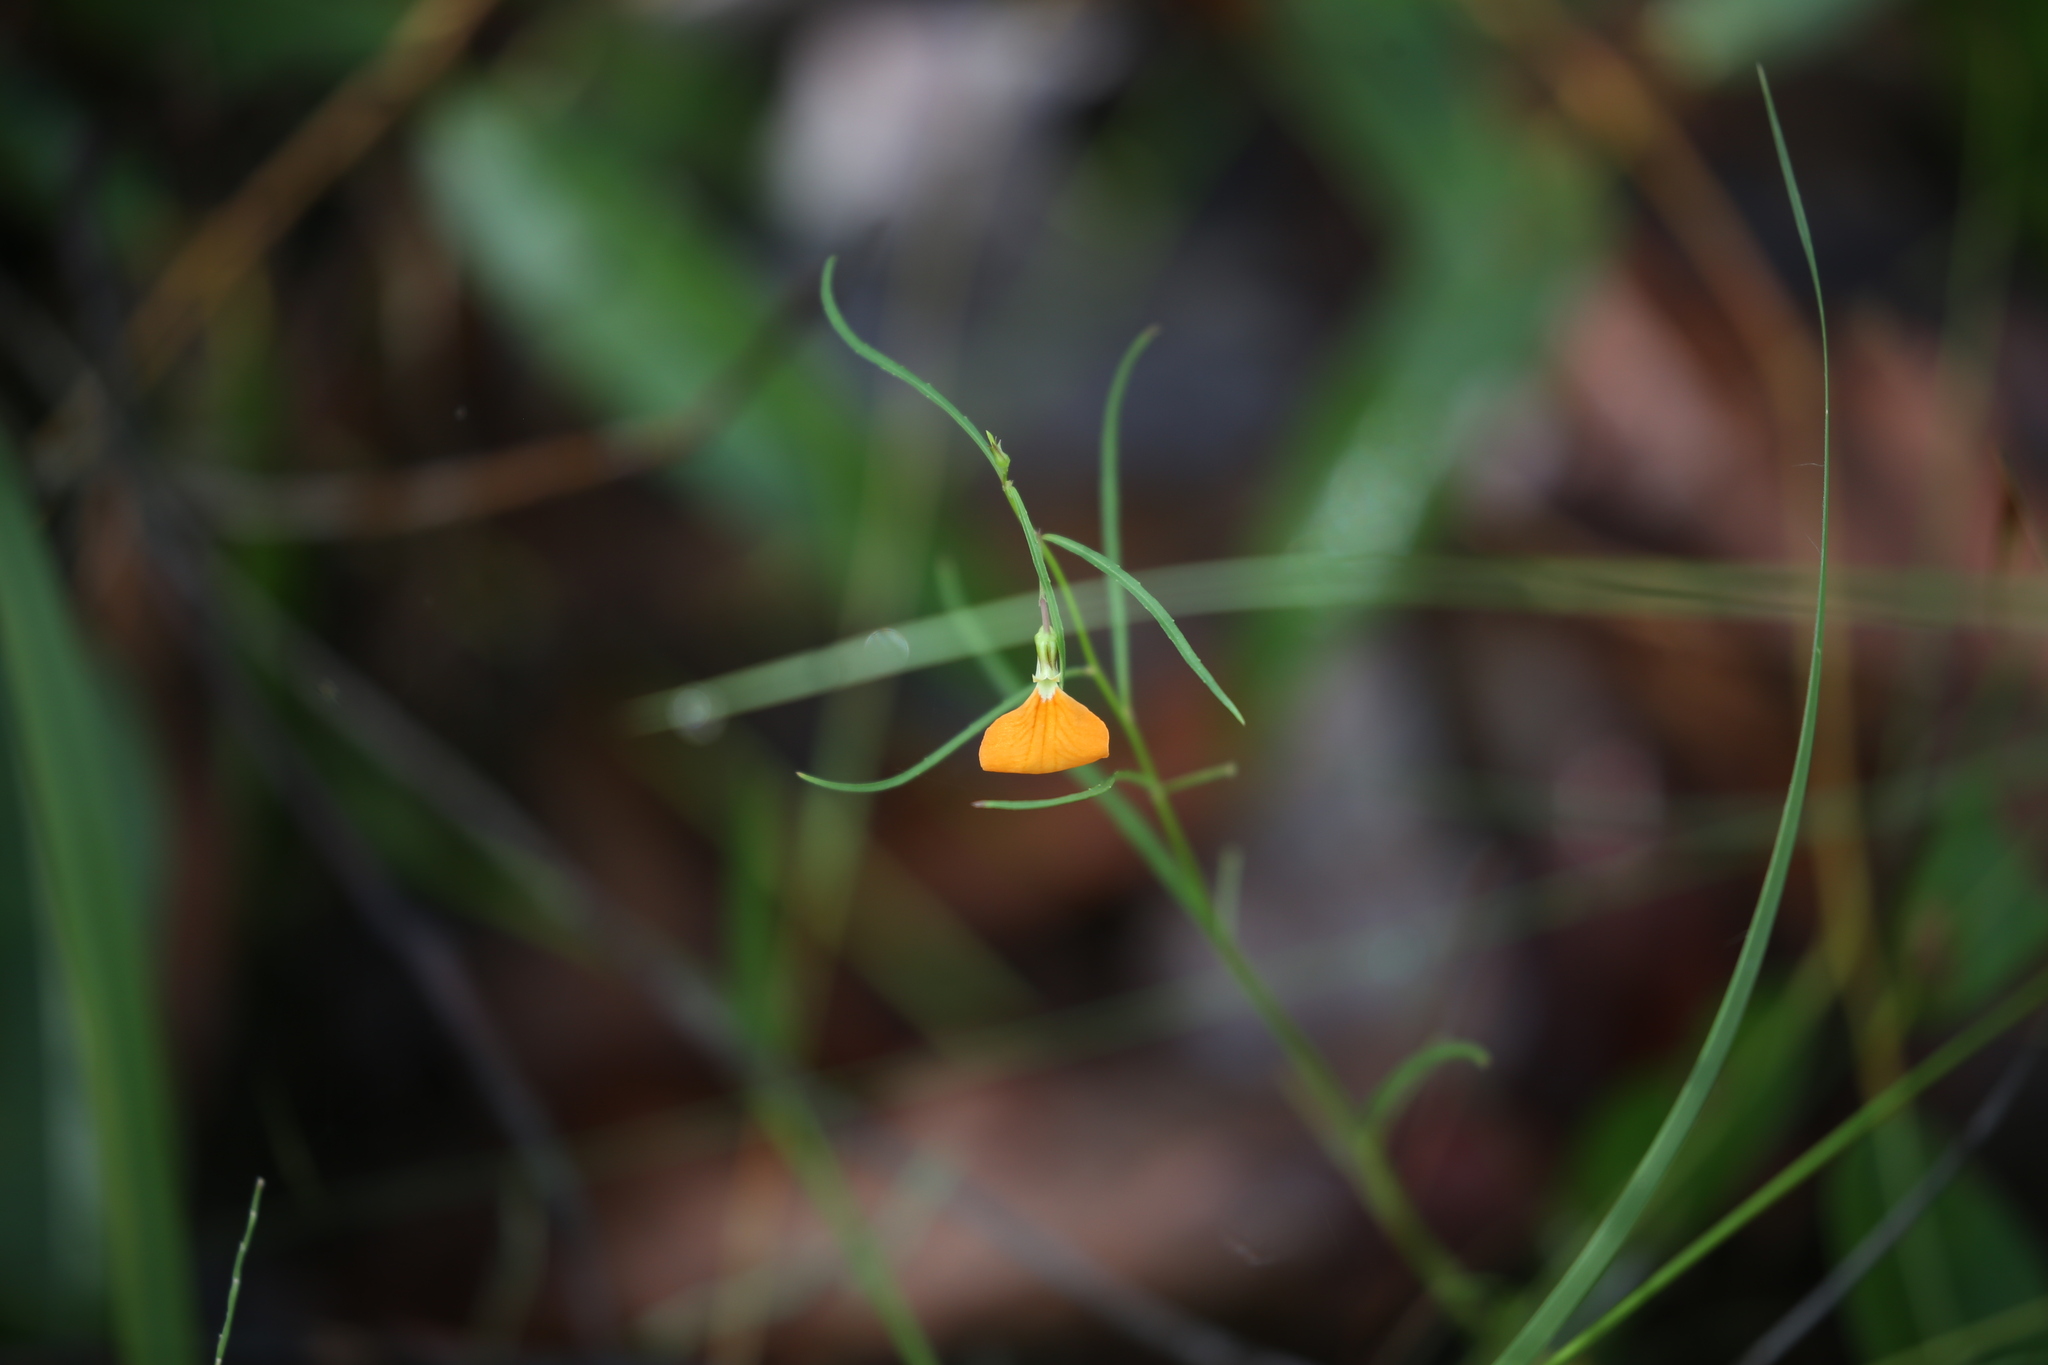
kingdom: Plantae
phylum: Tracheophyta
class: Magnoliopsida
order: Malpighiales
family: Violaceae
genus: Pigea
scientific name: Pigea stellarioides
